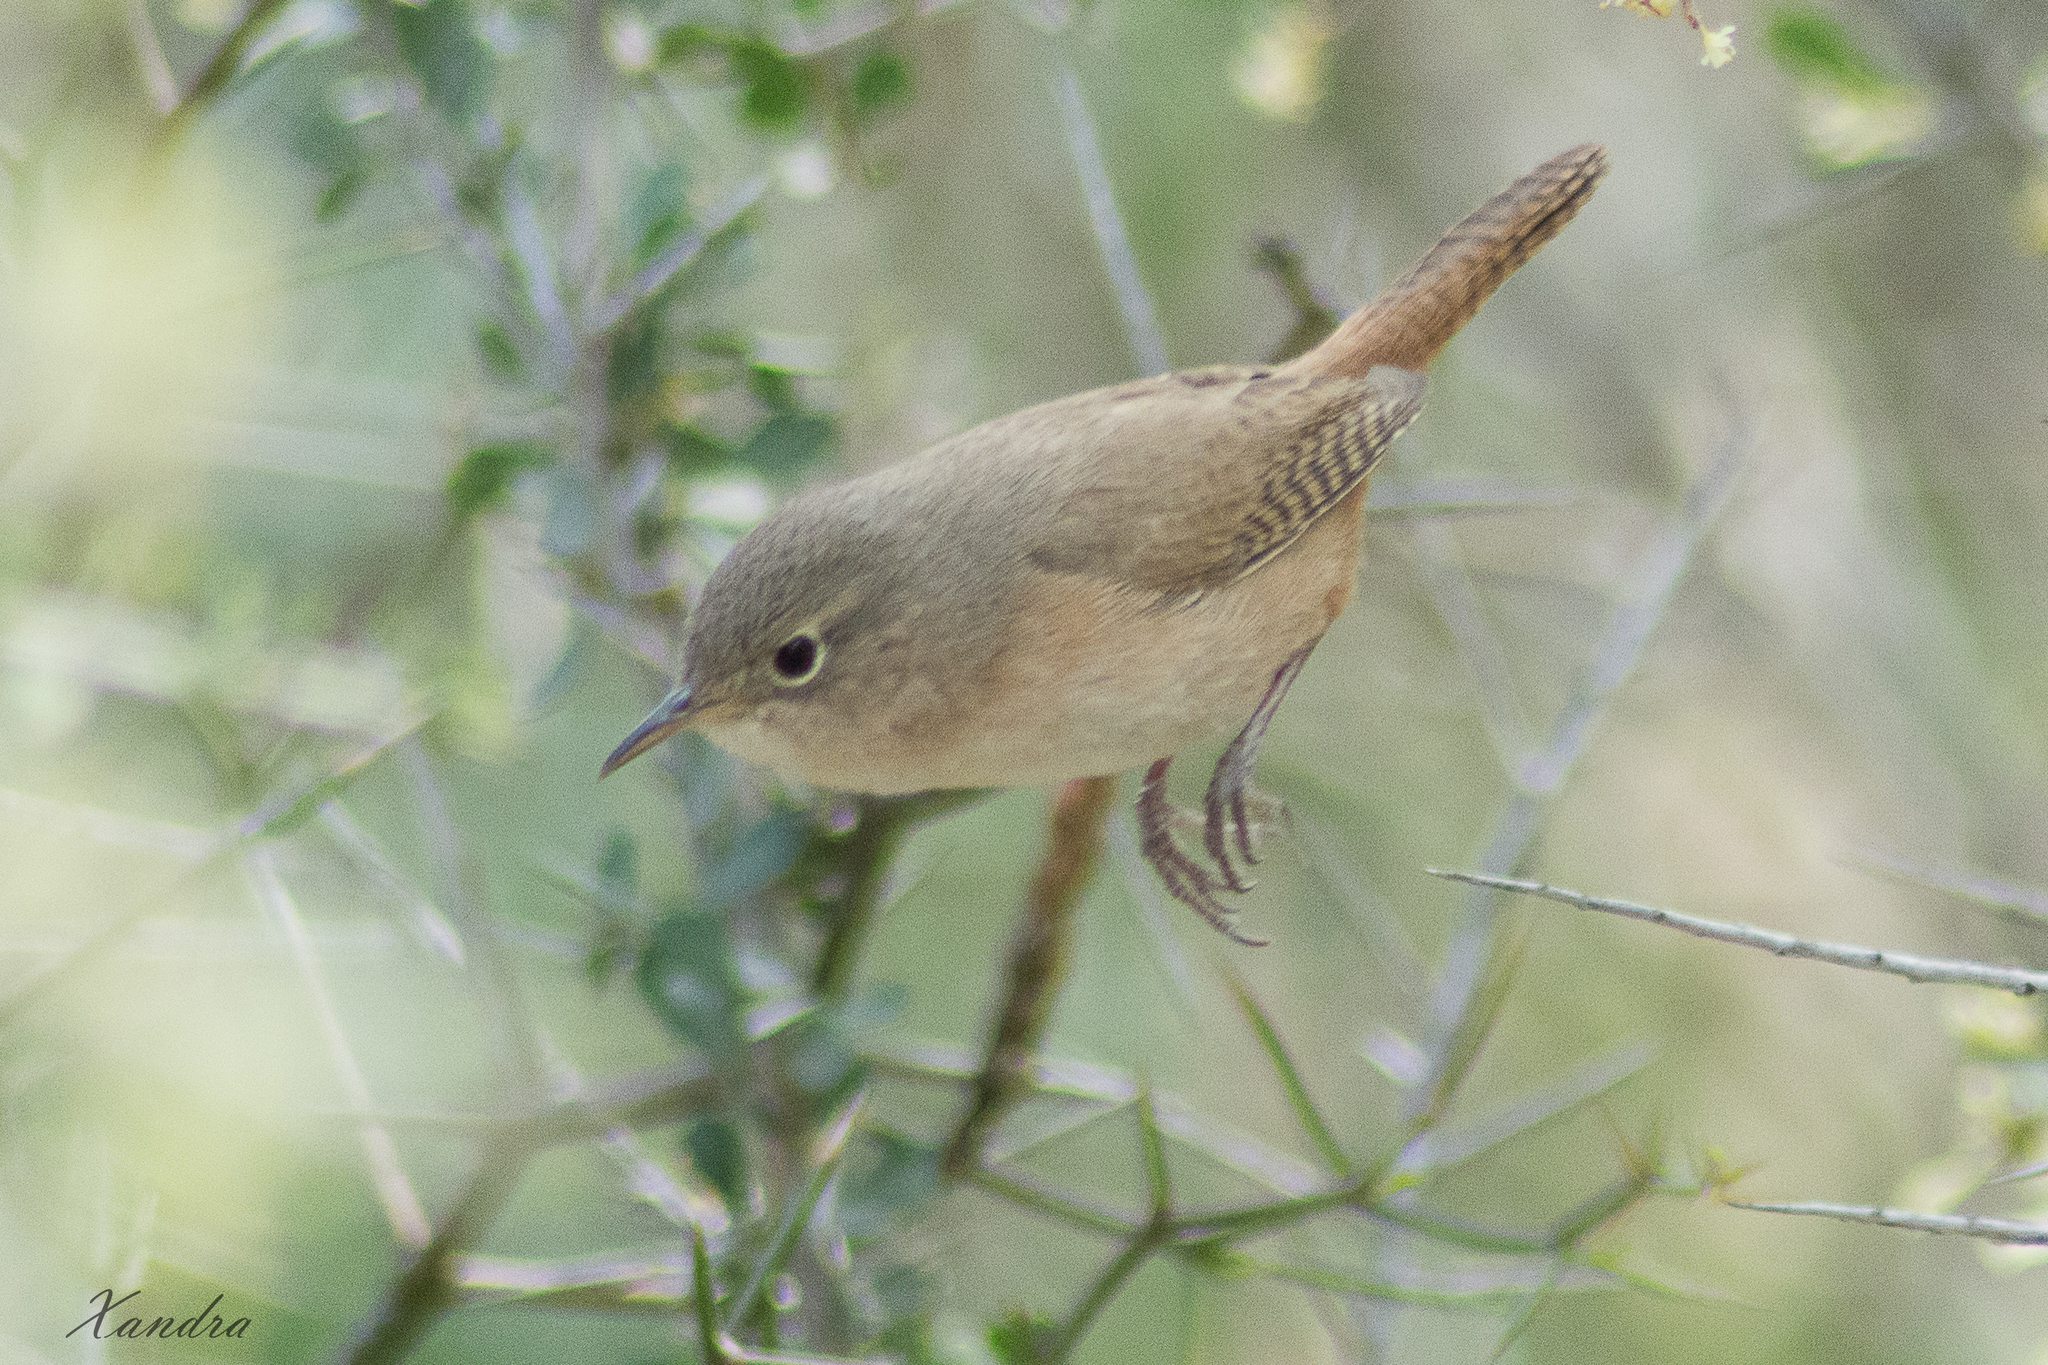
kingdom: Animalia
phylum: Chordata
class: Aves
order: Passeriformes
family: Troglodytidae
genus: Troglodytes
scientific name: Troglodytes aedon
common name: House wren
